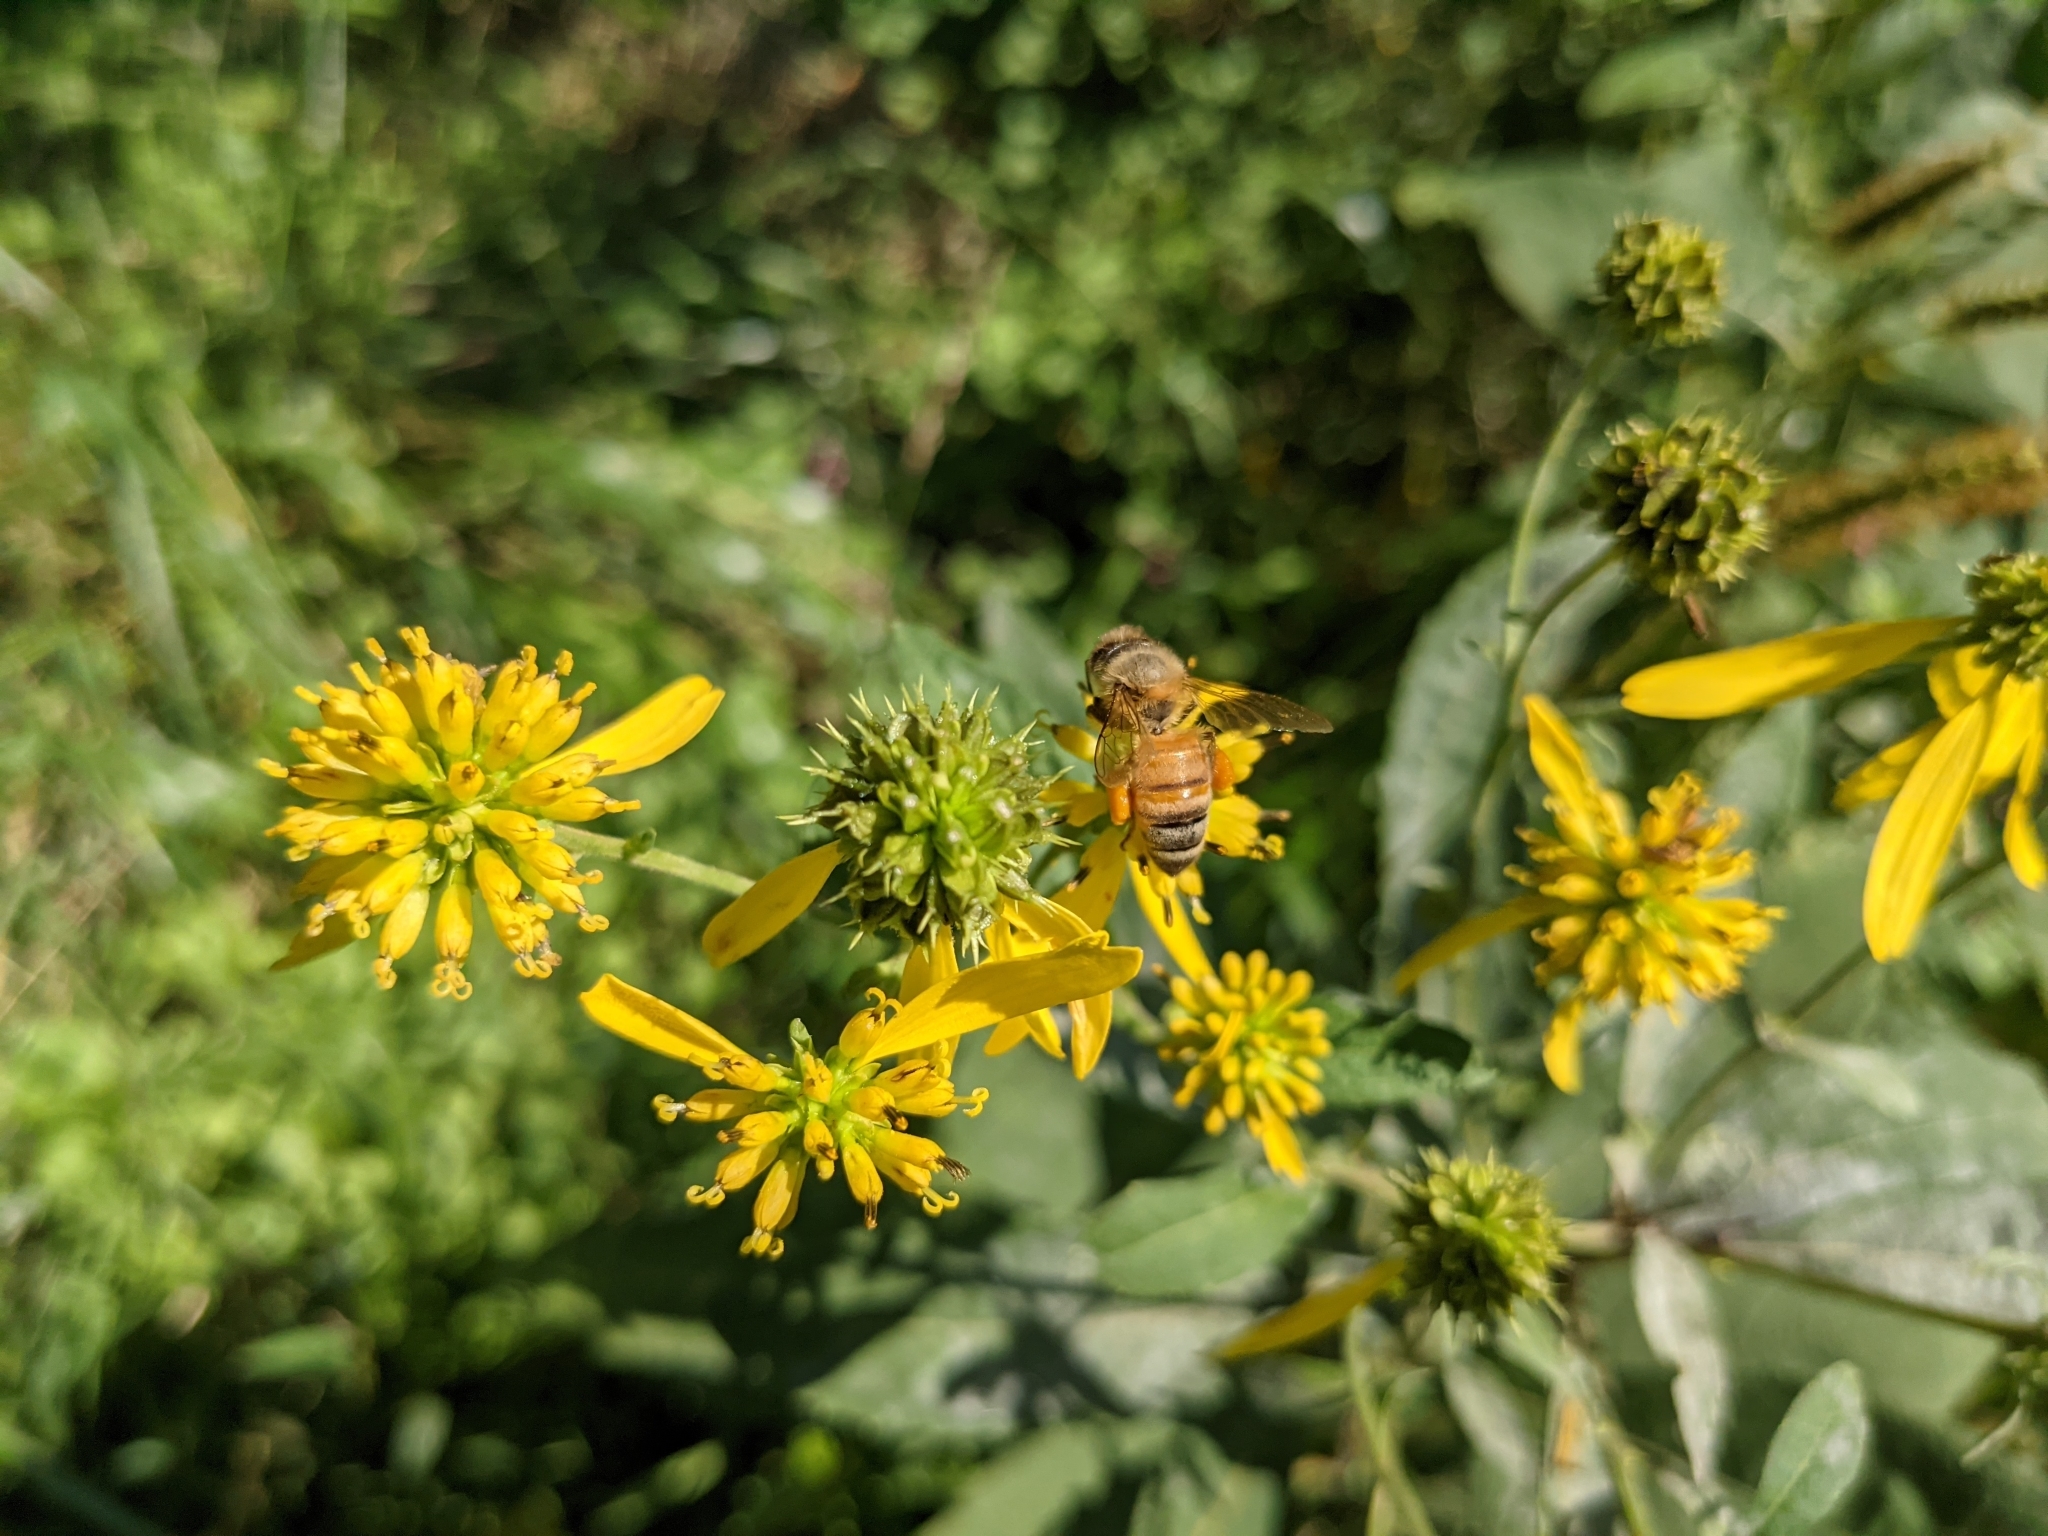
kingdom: Animalia
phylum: Arthropoda
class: Insecta
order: Hymenoptera
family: Apidae
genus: Apis
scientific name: Apis mellifera
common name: Honey bee
